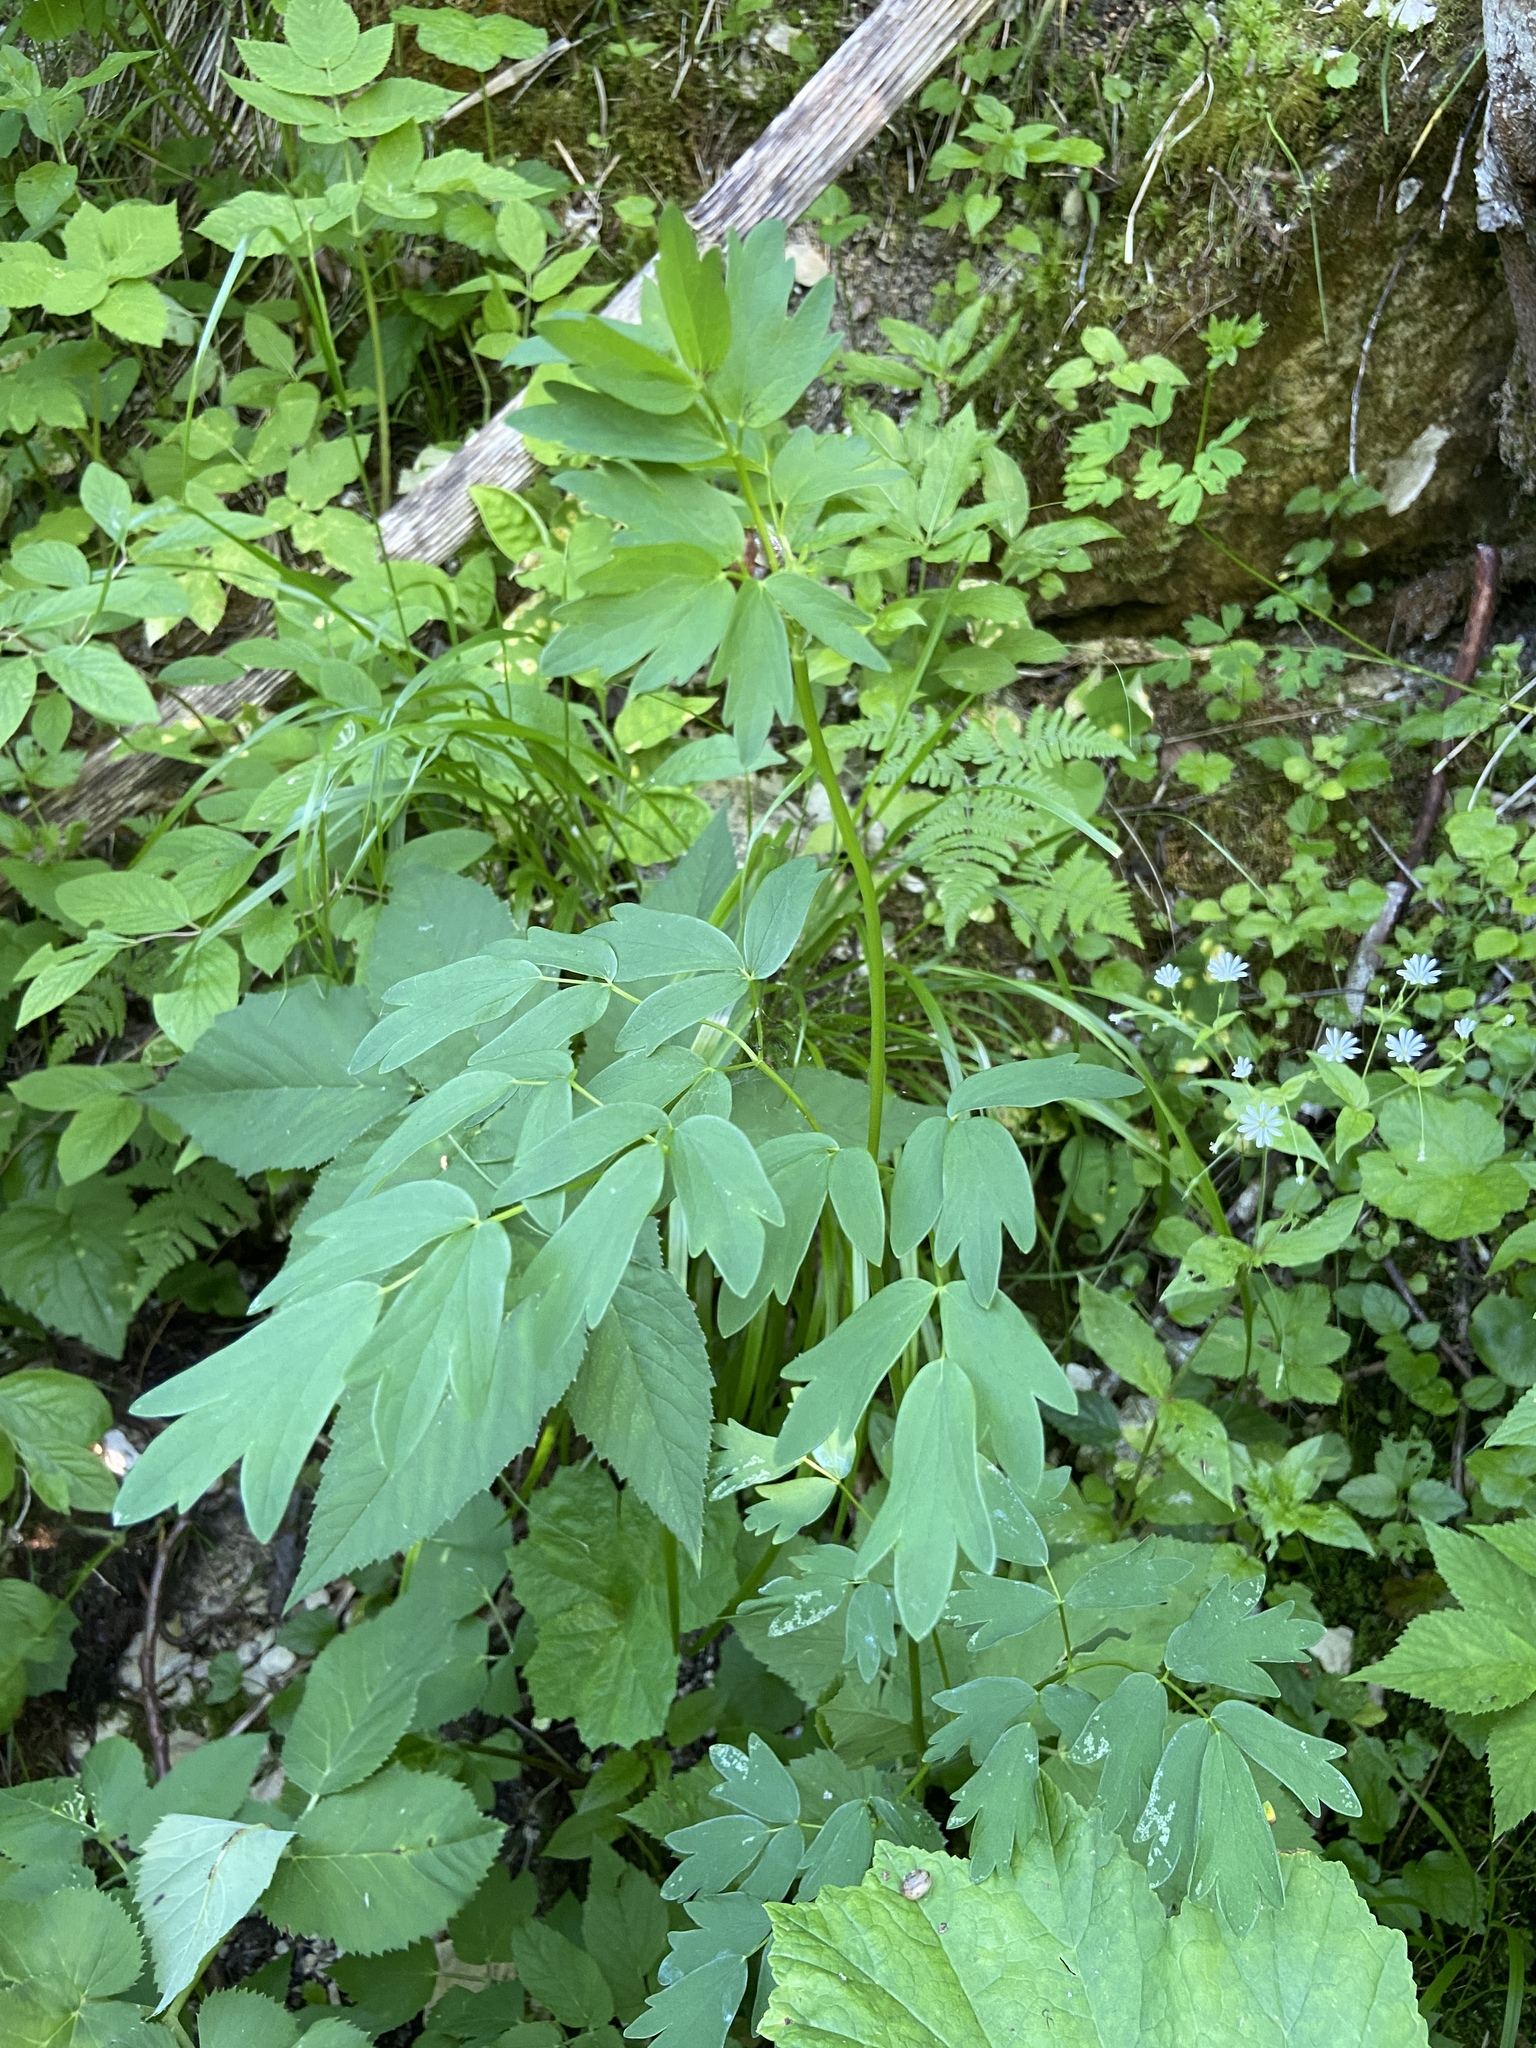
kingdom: Plantae
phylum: Tracheophyta
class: Magnoliopsida
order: Ranunculales
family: Ranunculaceae
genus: Thalictrum
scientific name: Thalictrum flavum
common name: Common meadow-rue
